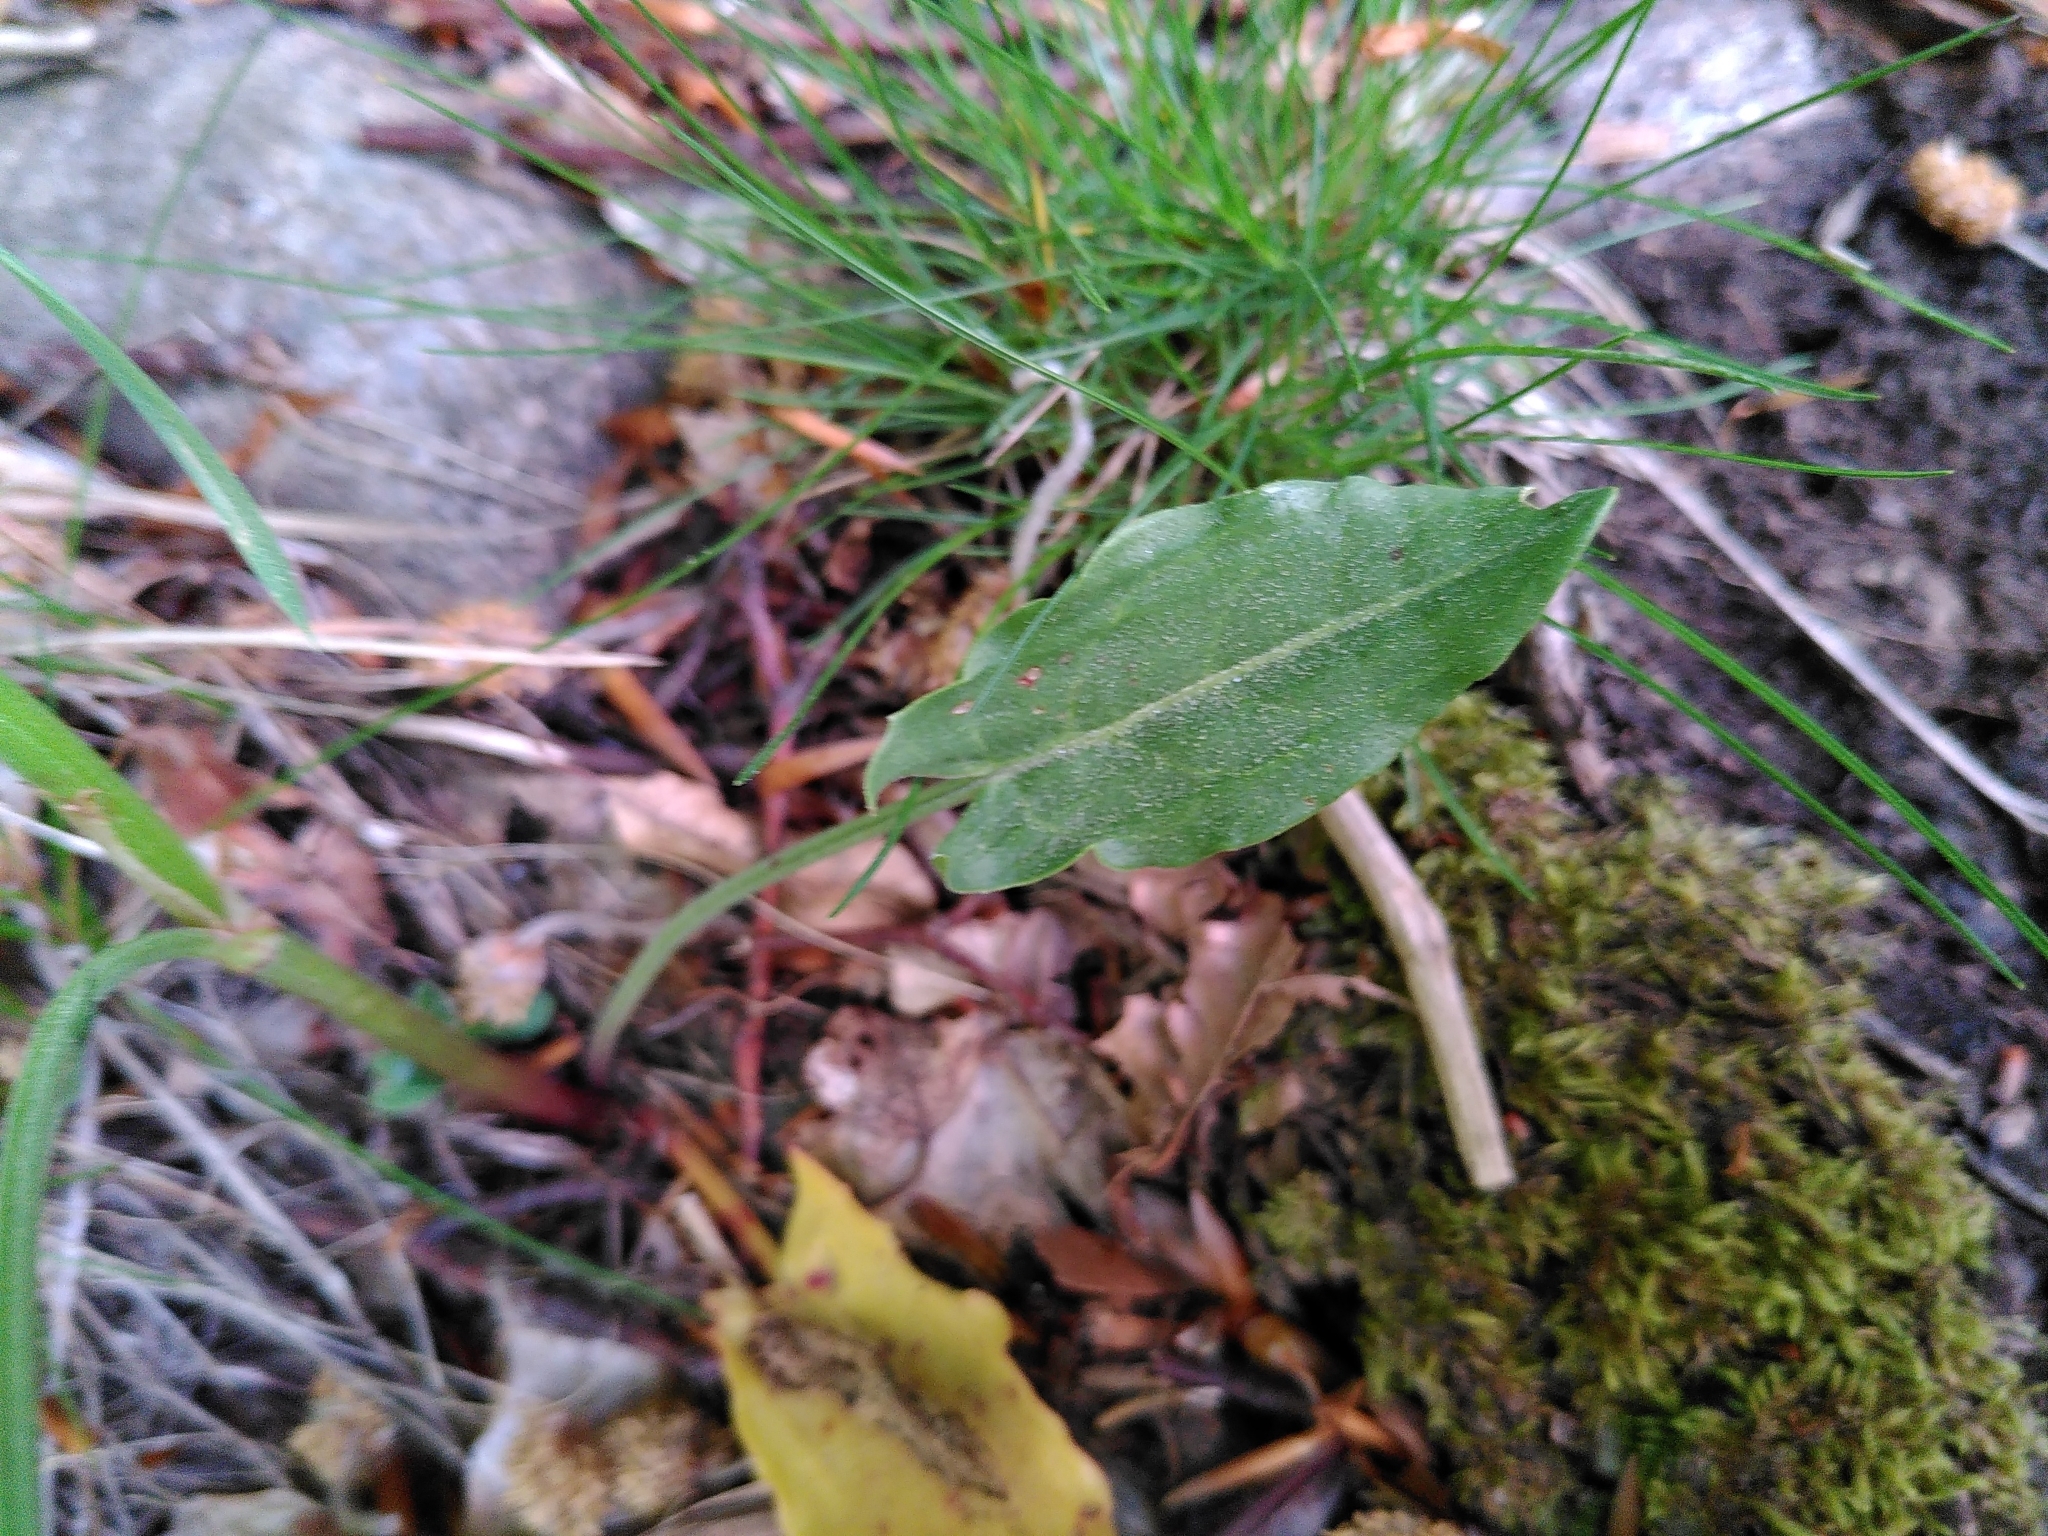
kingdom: Plantae
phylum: Tracheophyta
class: Magnoliopsida
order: Caryophyllales
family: Polygonaceae
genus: Rumex
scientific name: Rumex acetosa
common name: Garden sorrel
